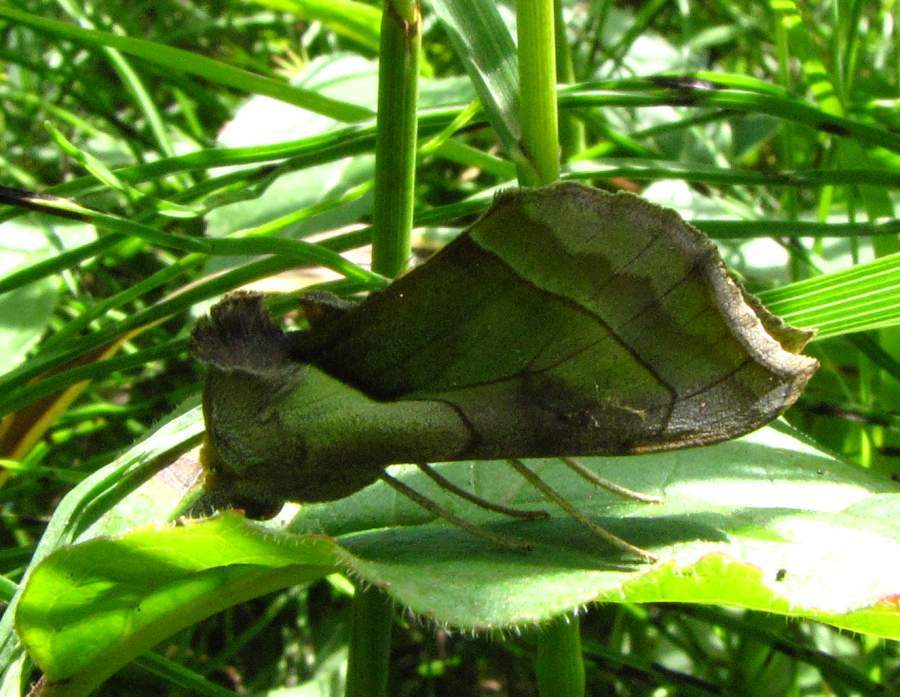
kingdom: Animalia
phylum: Arthropoda
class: Insecta
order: Lepidoptera
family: Noctuidae
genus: Diachrysia
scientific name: Diachrysia balluca
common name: Green-patched looper moth
